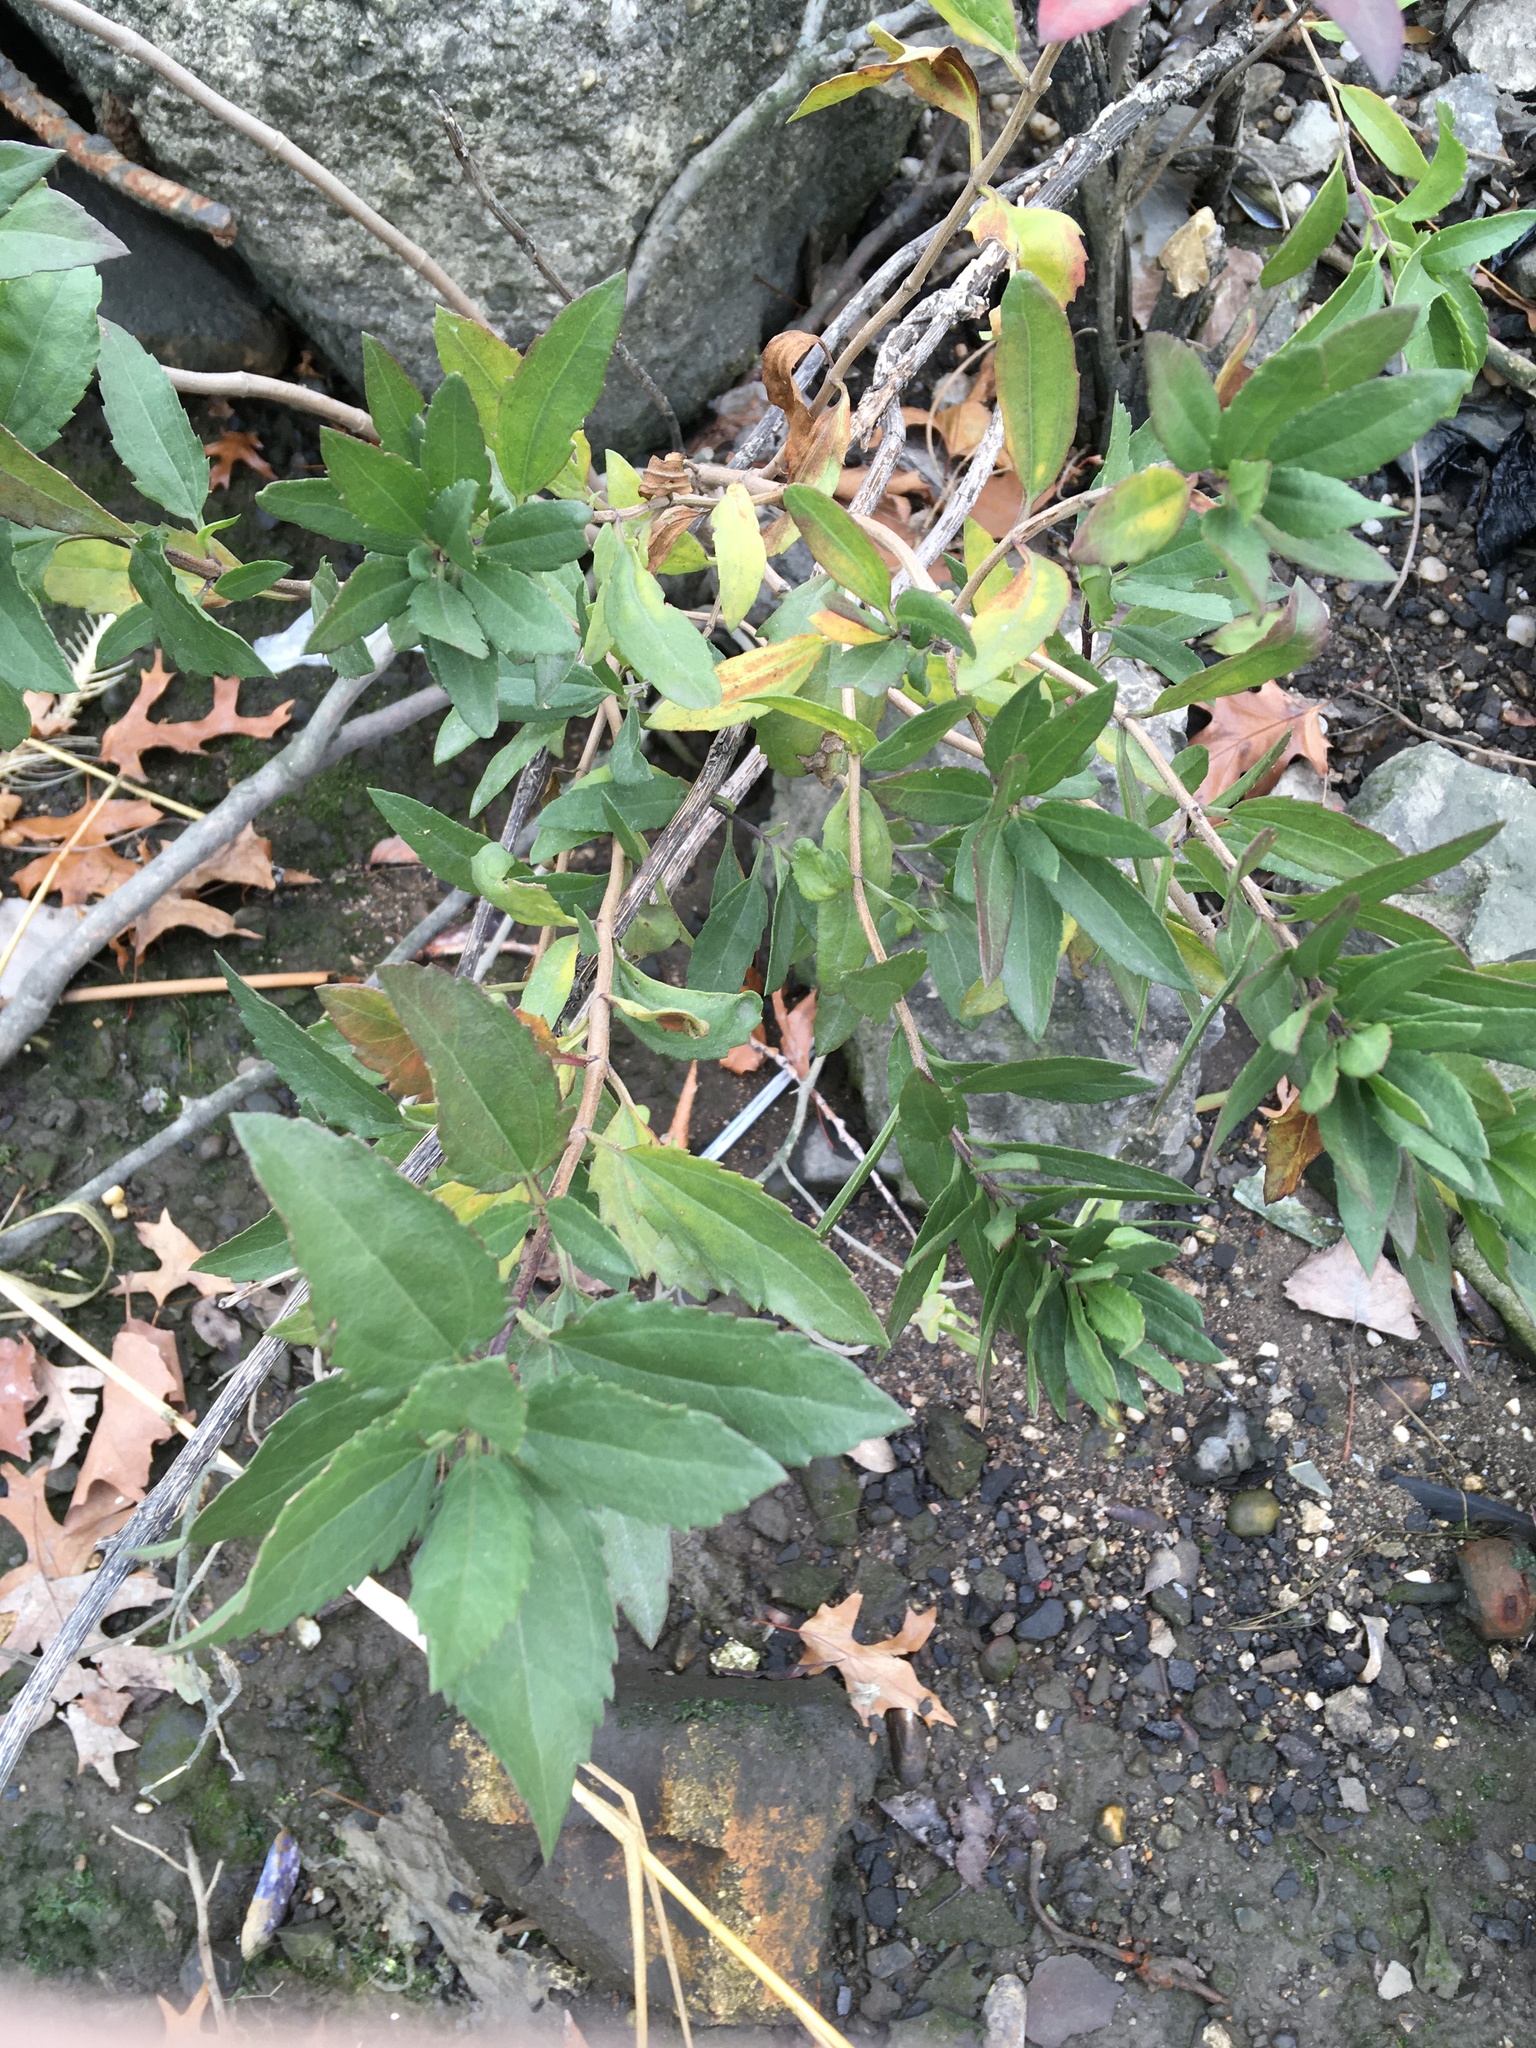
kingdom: Plantae
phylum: Tracheophyta
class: Magnoliopsida
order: Asterales
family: Asteraceae
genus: Iva
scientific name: Iva frutescens
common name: Big-leaved marsh-elder
